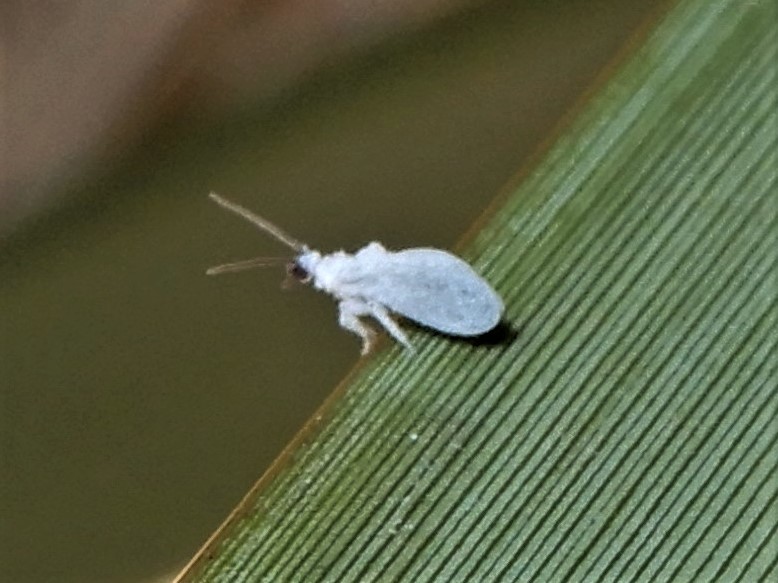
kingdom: Animalia
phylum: Arthropoda
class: Insecta
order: Neuroptera
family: Coniopterygidae
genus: Cryptoscenea
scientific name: Cryptoscenea australiensis
